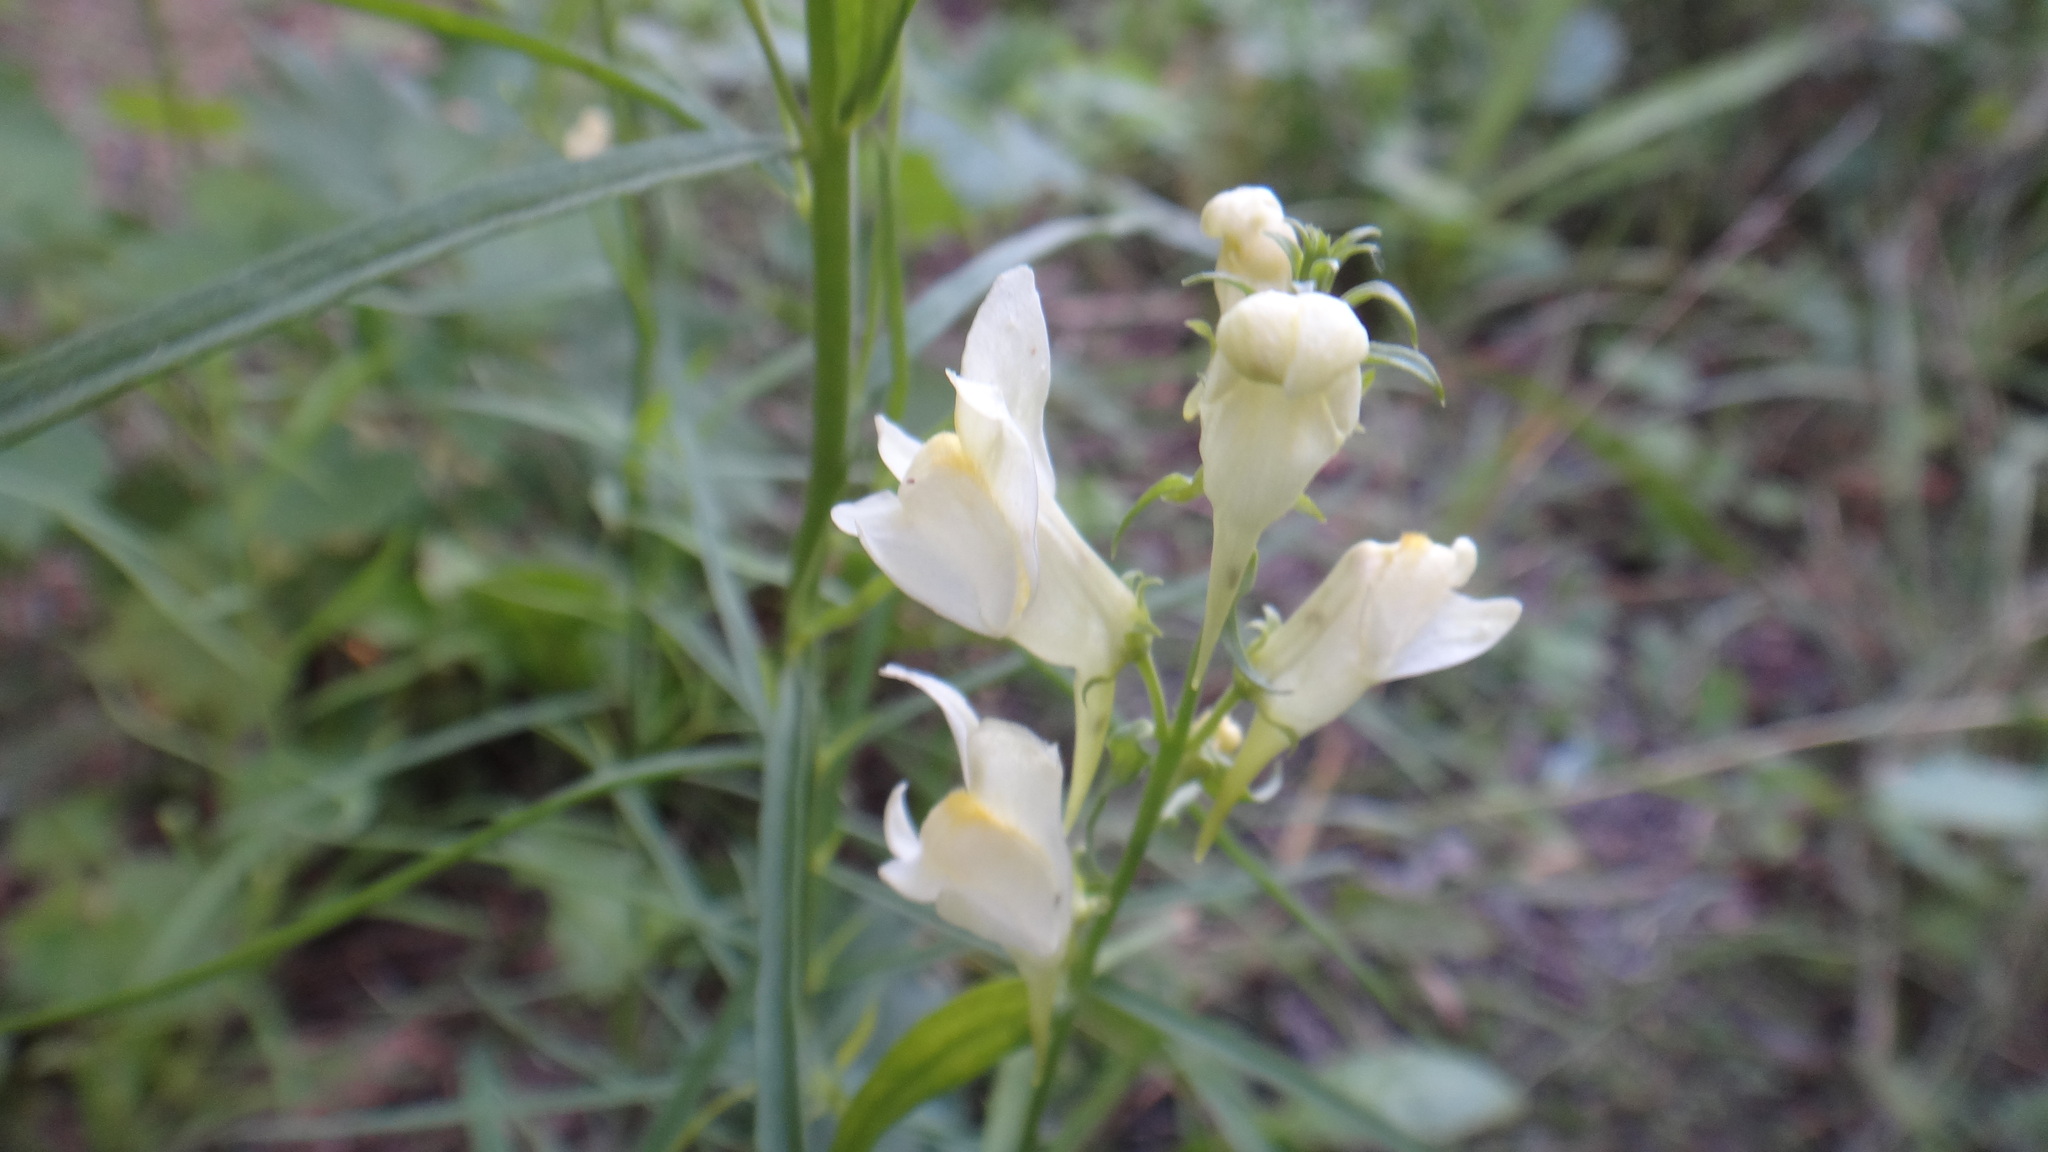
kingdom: Plantae
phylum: Tracheophyta
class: Magnoliopsida
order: Lamiales
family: Plantaginaceae
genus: Linaria
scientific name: Linaria vulgaris
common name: Butter and eggs
